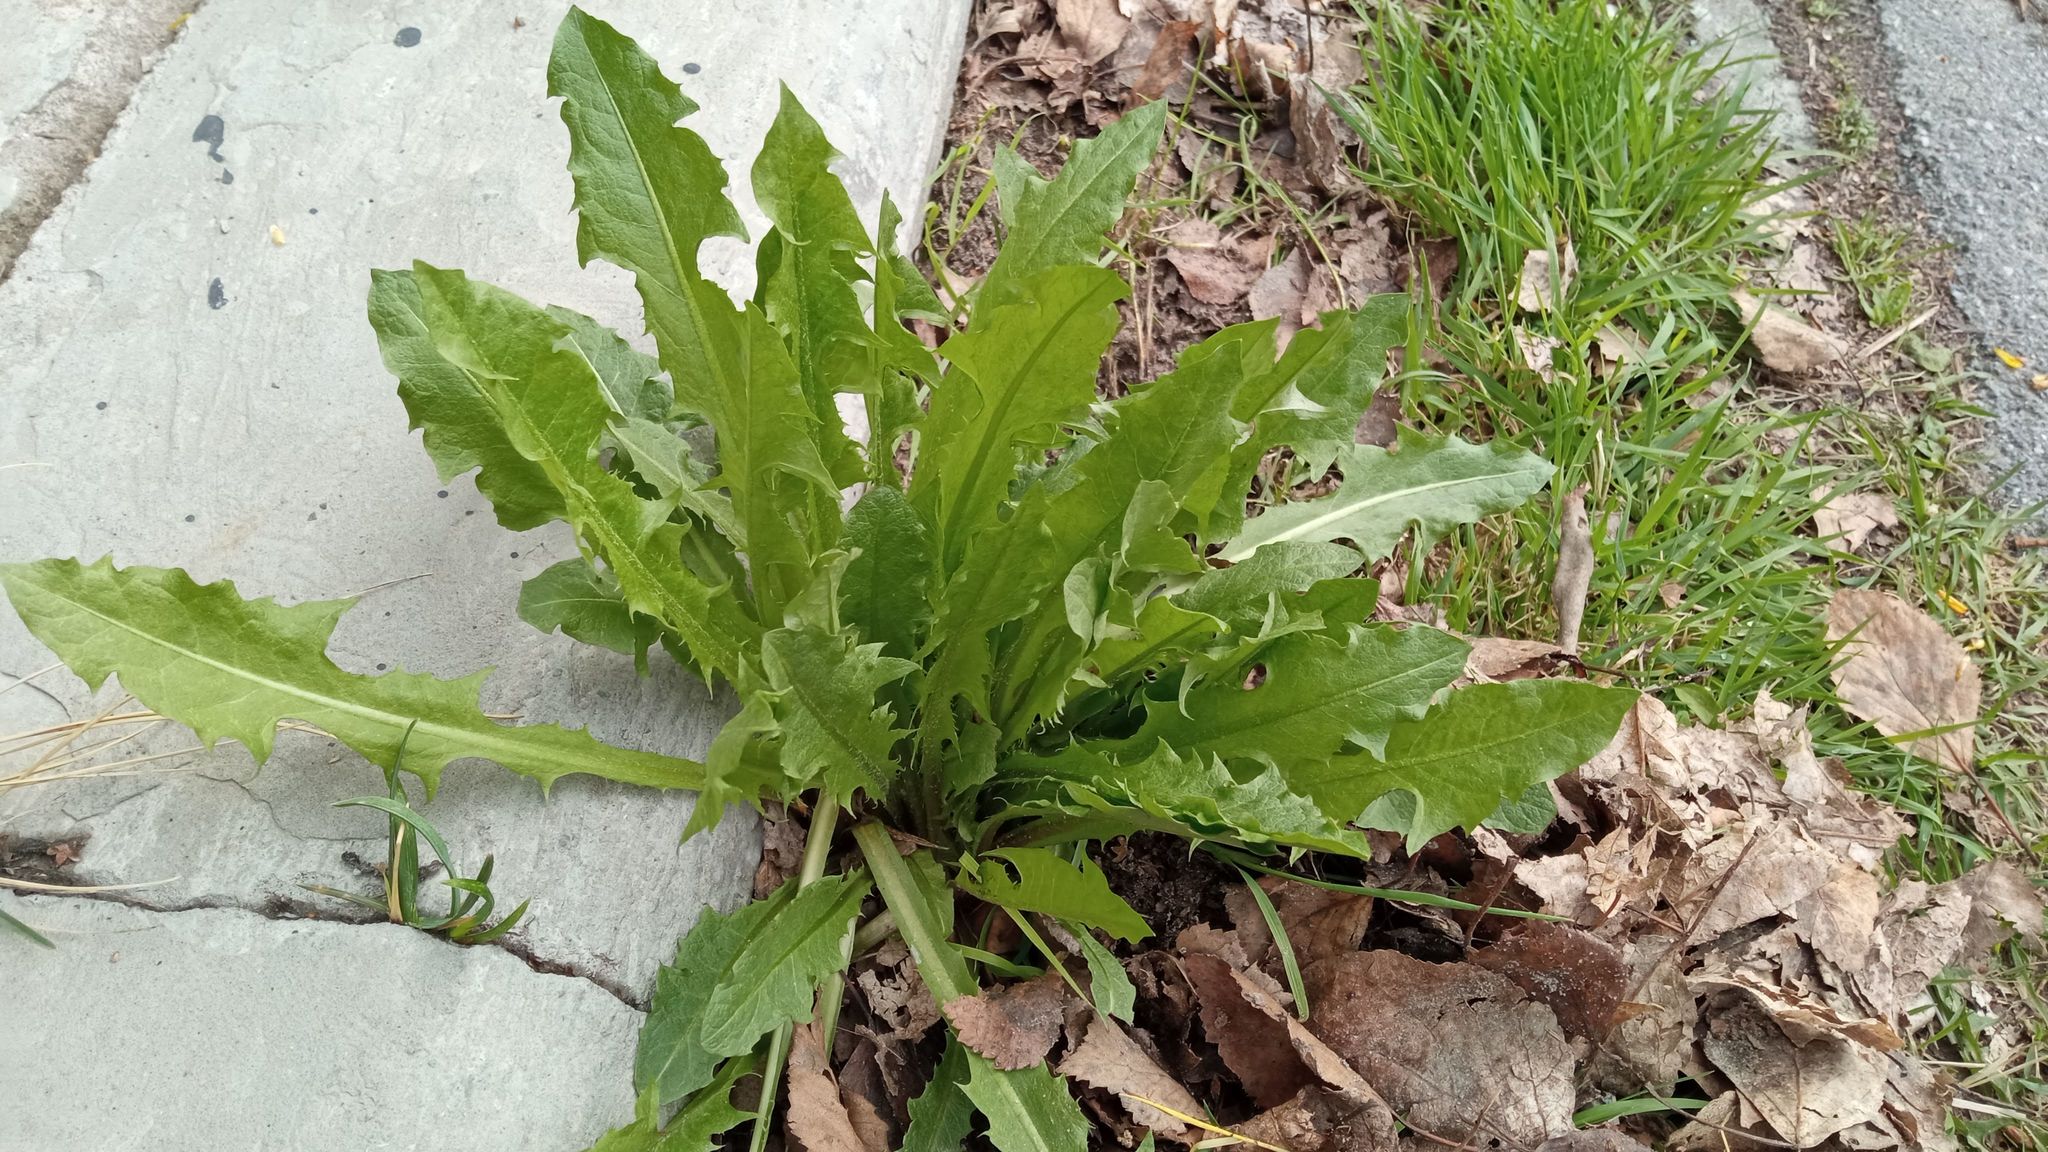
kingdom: Plantae
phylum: Tracheophyta
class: Magnoliopsida
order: Asterales
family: Asteraceae
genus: Taraxacum
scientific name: Taraxacum officinale
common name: Common dandelion
